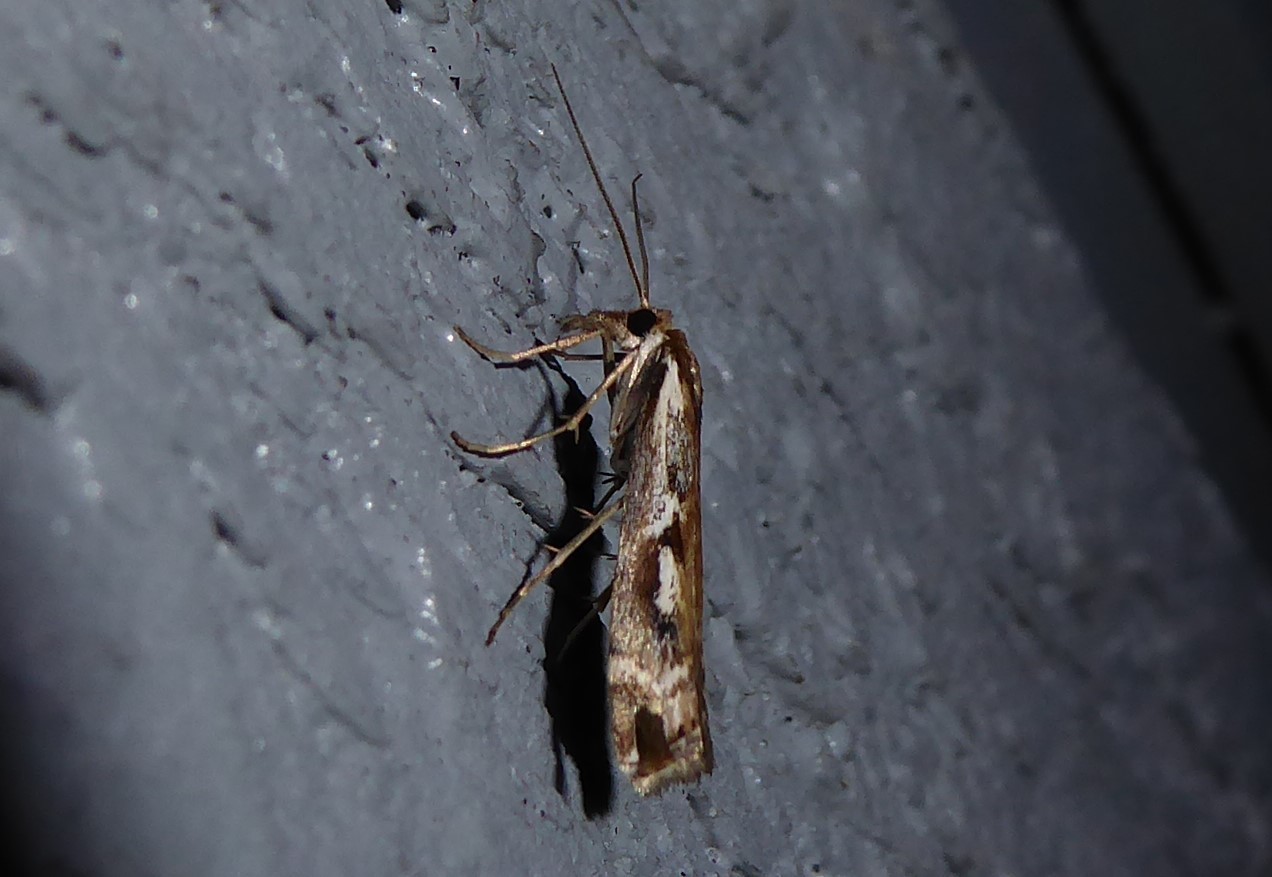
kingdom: Animalia
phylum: Arthropoda
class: Insecta
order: Lepidoptera
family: Crambidae
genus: Orocrambus
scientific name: Orocrambus vulgaris
